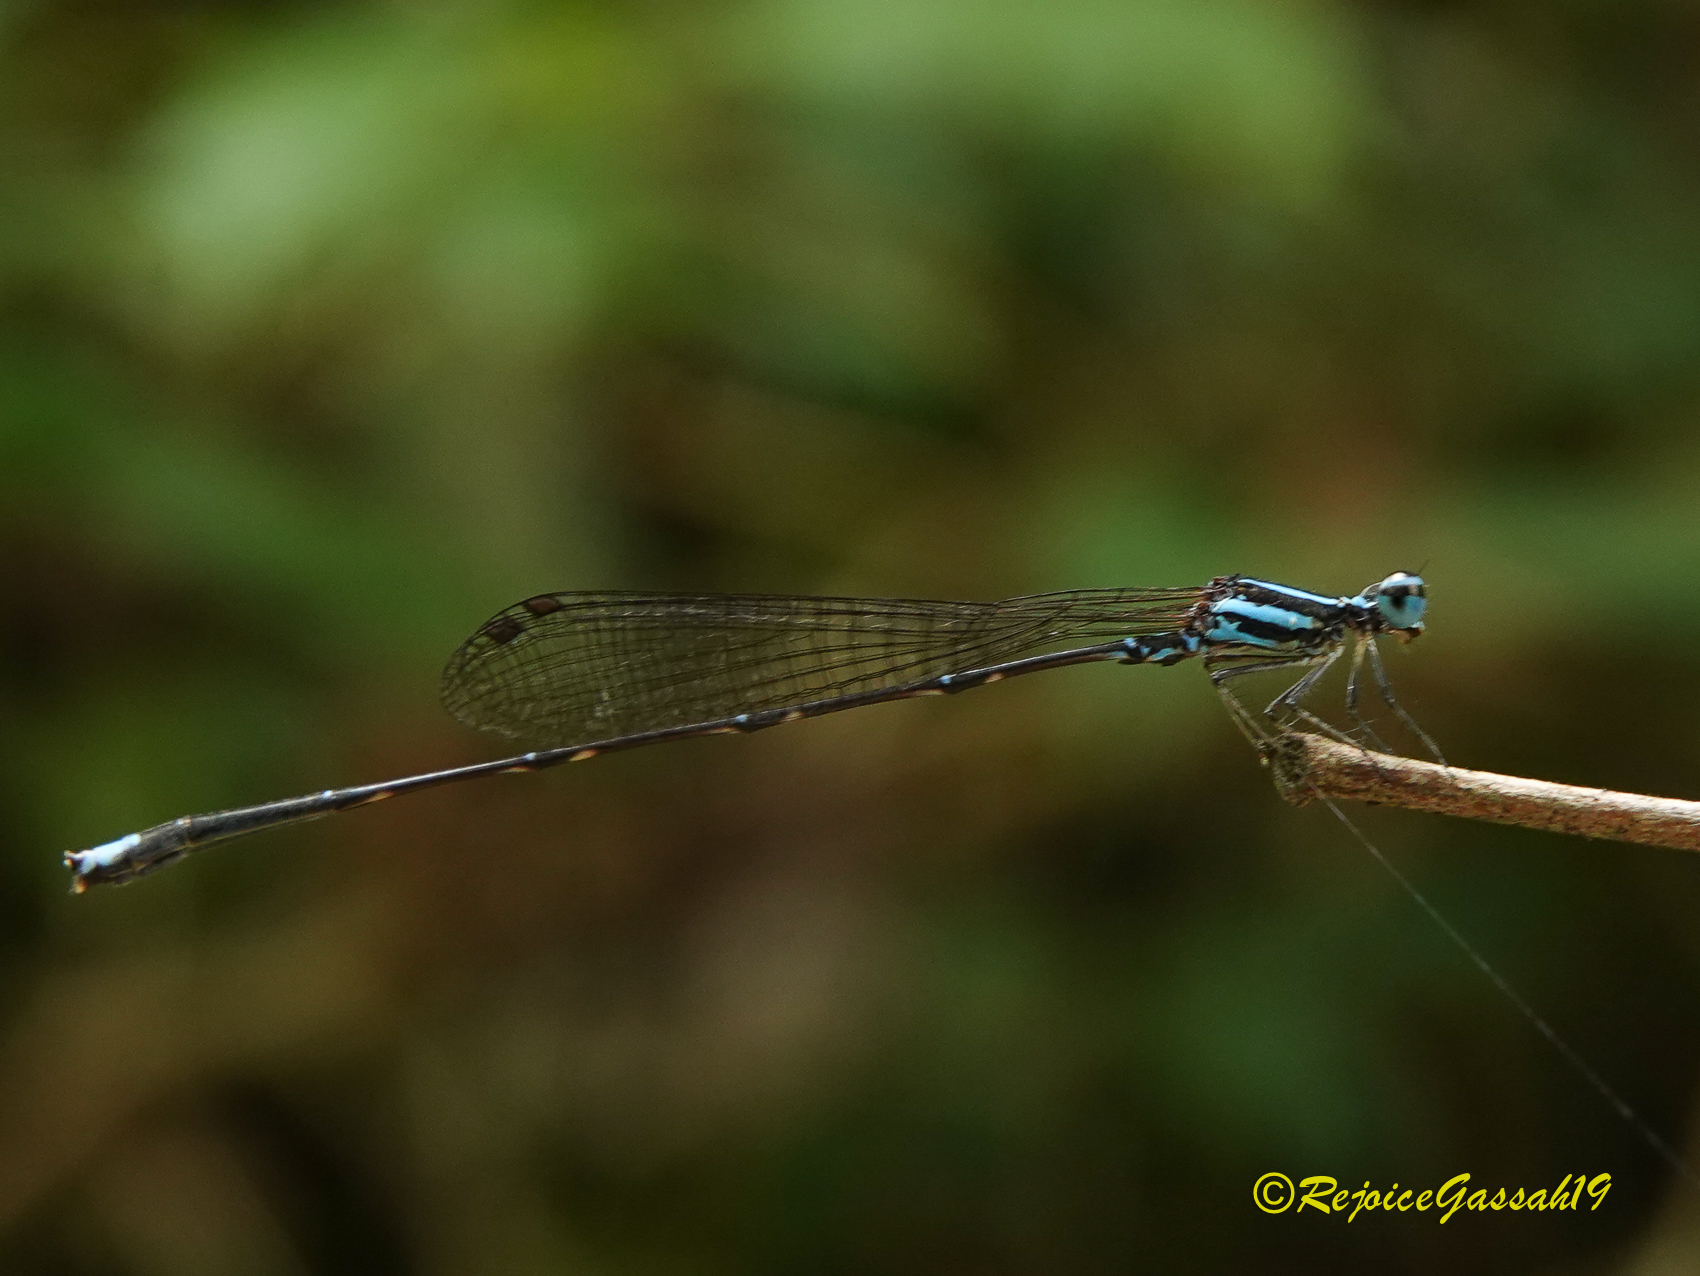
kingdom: Animalia
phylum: Arthropoda
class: Insecta
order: Odonata
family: Platycnemididae
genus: Elattoneura
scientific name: Elattoneura campioni
